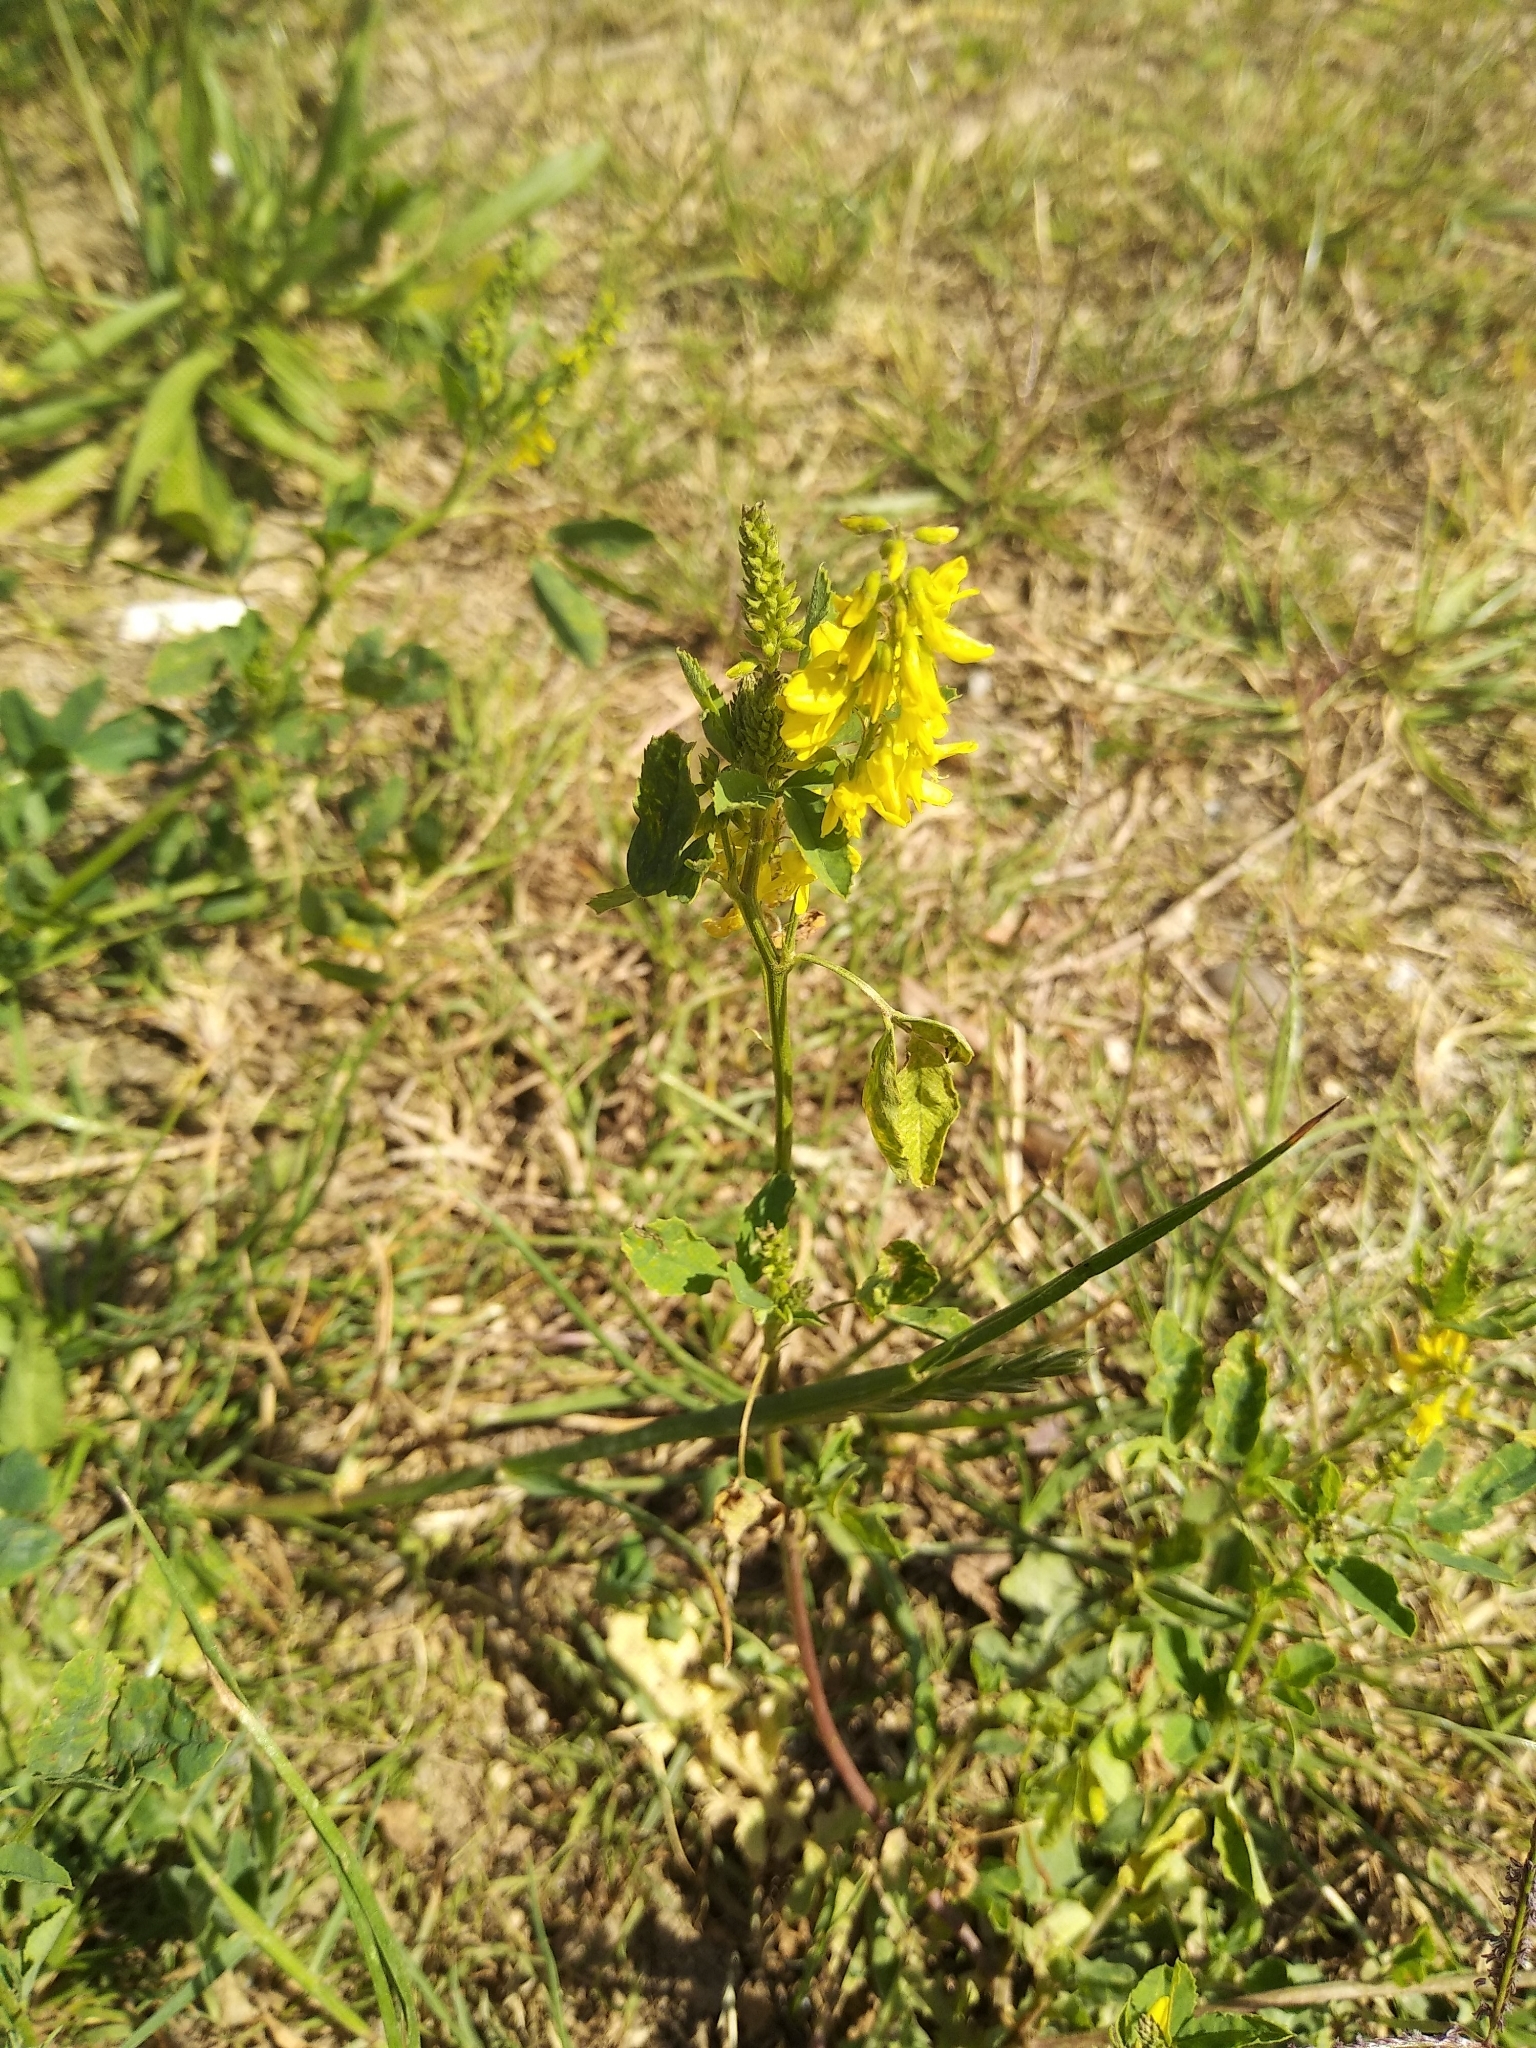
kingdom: Plantae
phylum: Tracheophyta
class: Magnoliopsida
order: Fabales
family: Fabaceae
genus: Melilotus
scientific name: Melilotus officinalis
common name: Sweetclover
